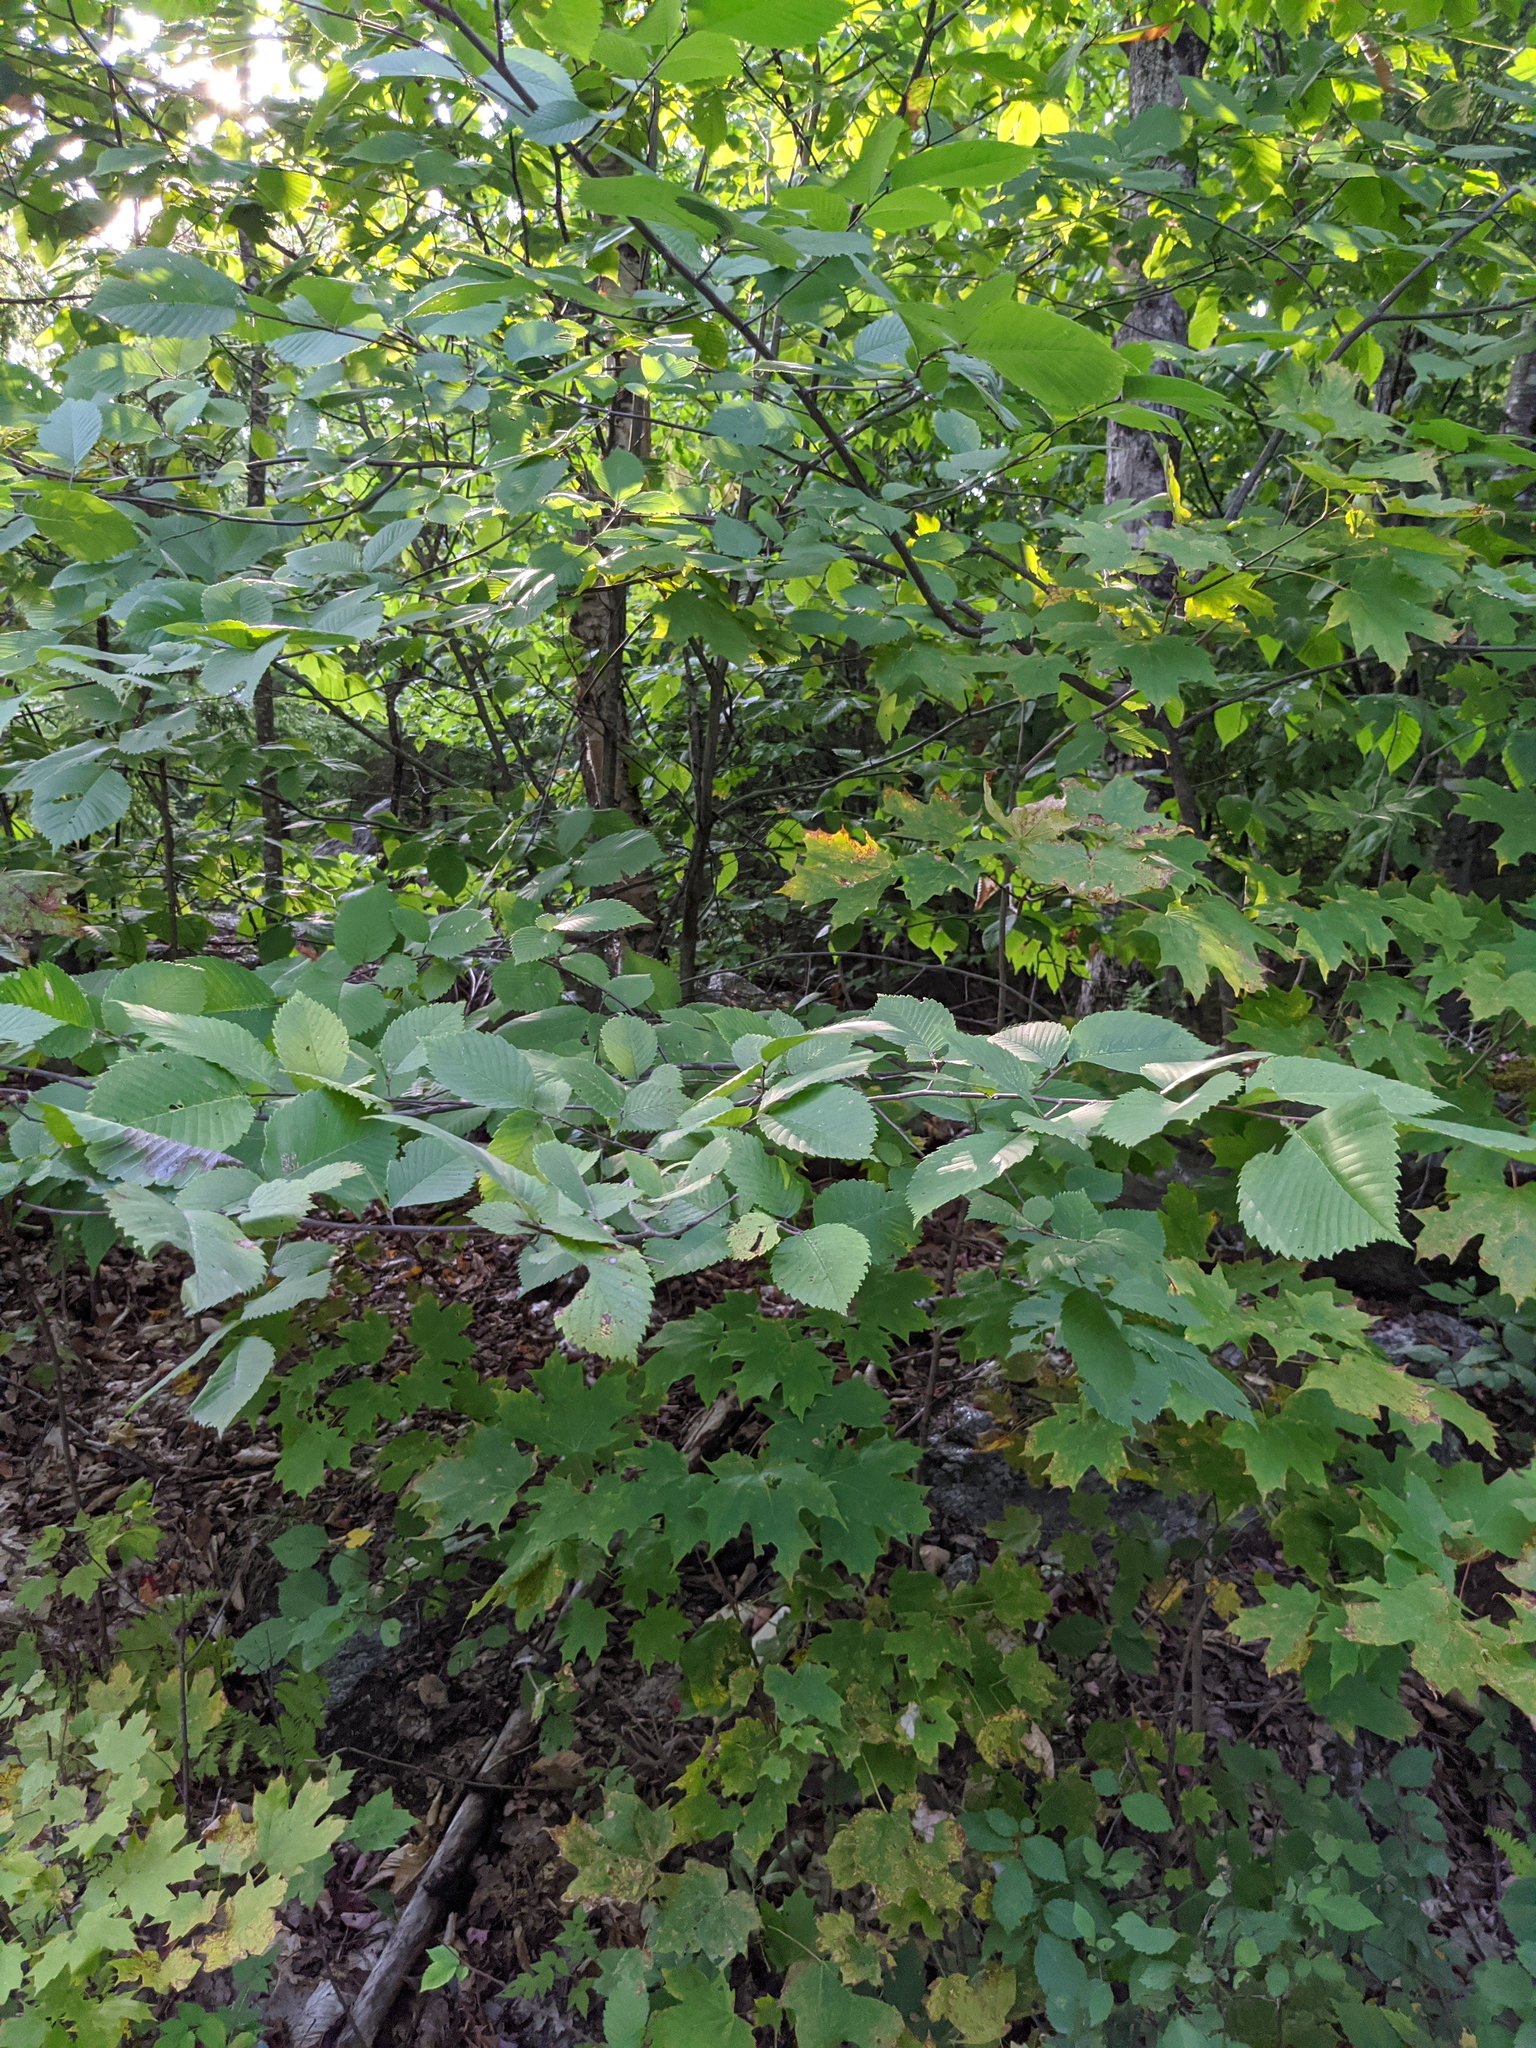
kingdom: Plantae
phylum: Tracheophyta
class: Magnoliopsida
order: Rosales
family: Ulmaceae
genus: Ulmus
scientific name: Ulmus americana
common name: American elm
